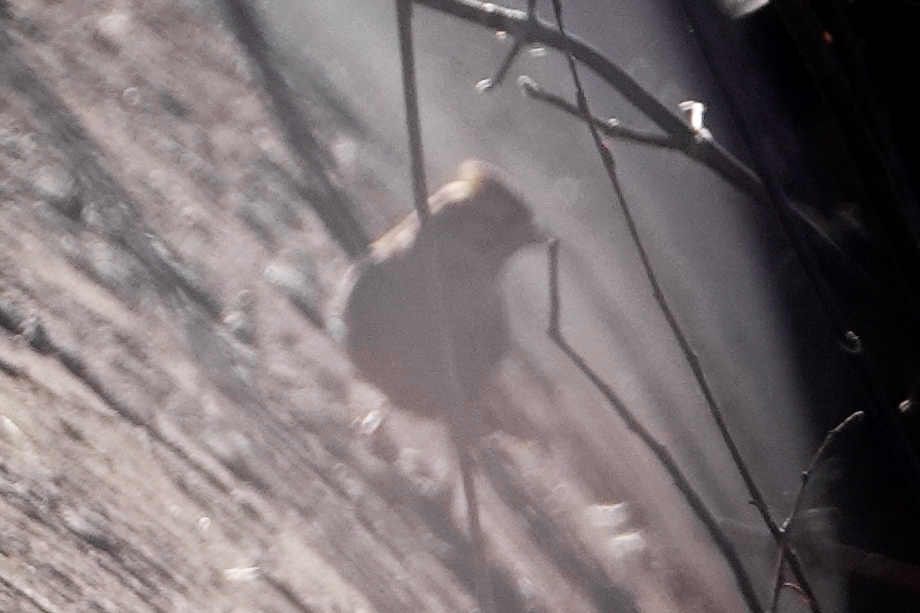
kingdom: Animalia
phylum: Chordata
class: Aves
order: Passeriformes
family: Alaudidae
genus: Alauda
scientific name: Alauda arvensis
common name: Eurasian skylark
